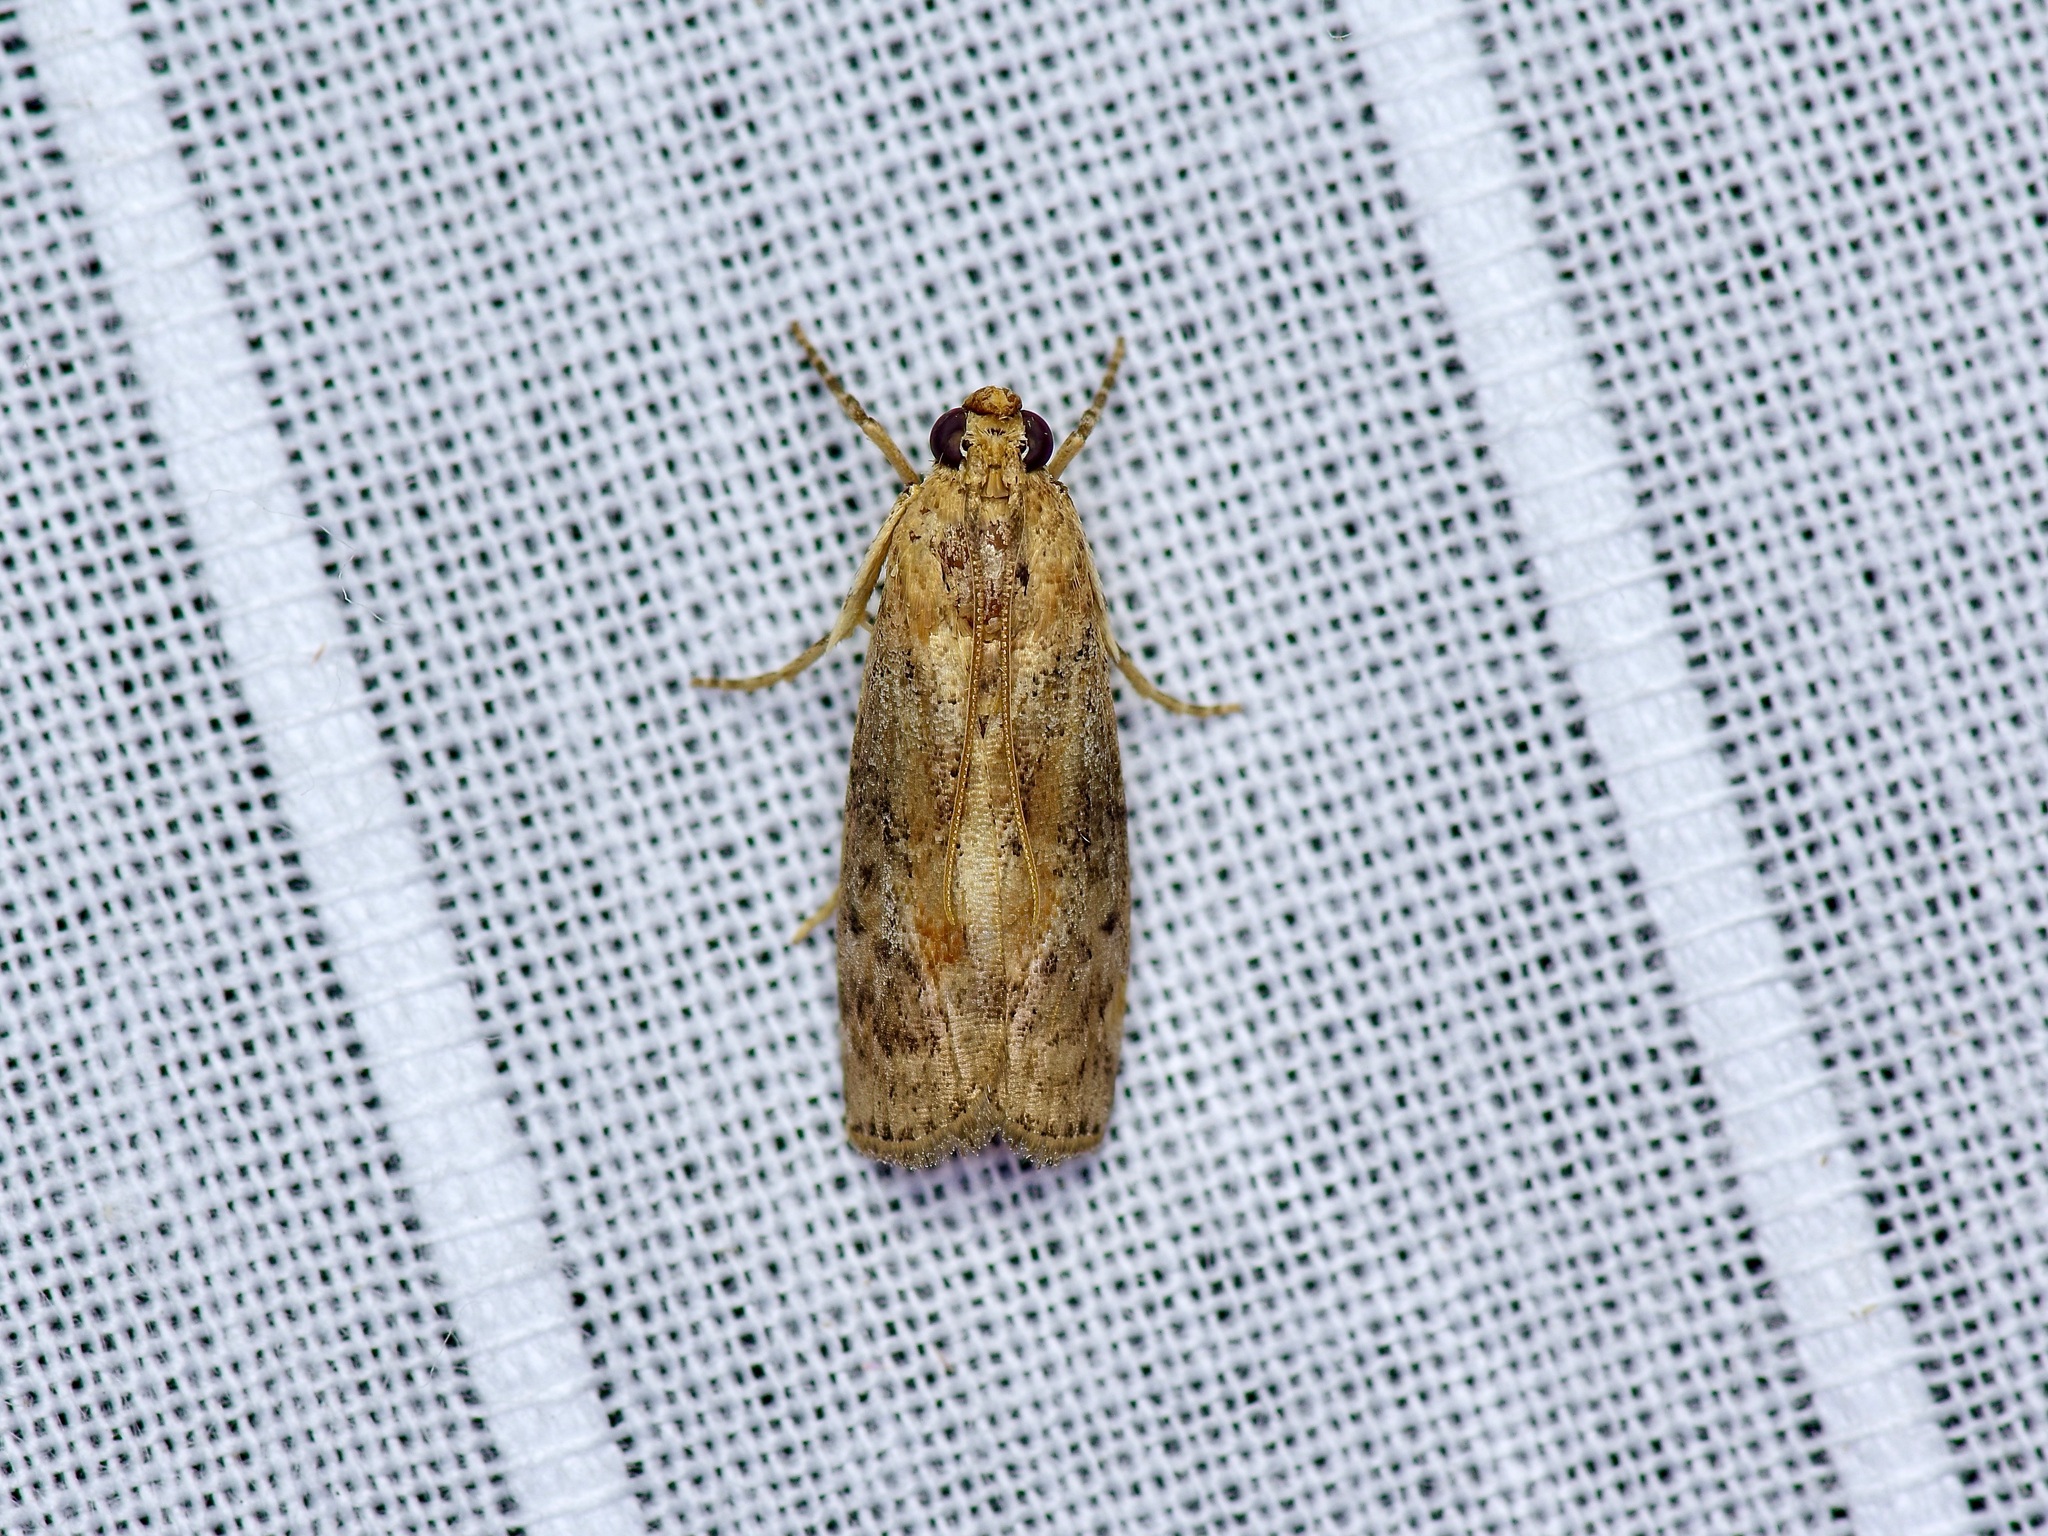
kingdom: Animalia
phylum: Arthropoda
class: Insecta
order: Lepidoptera
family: Pyralidae
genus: Sciota
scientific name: Sciota celtidella
